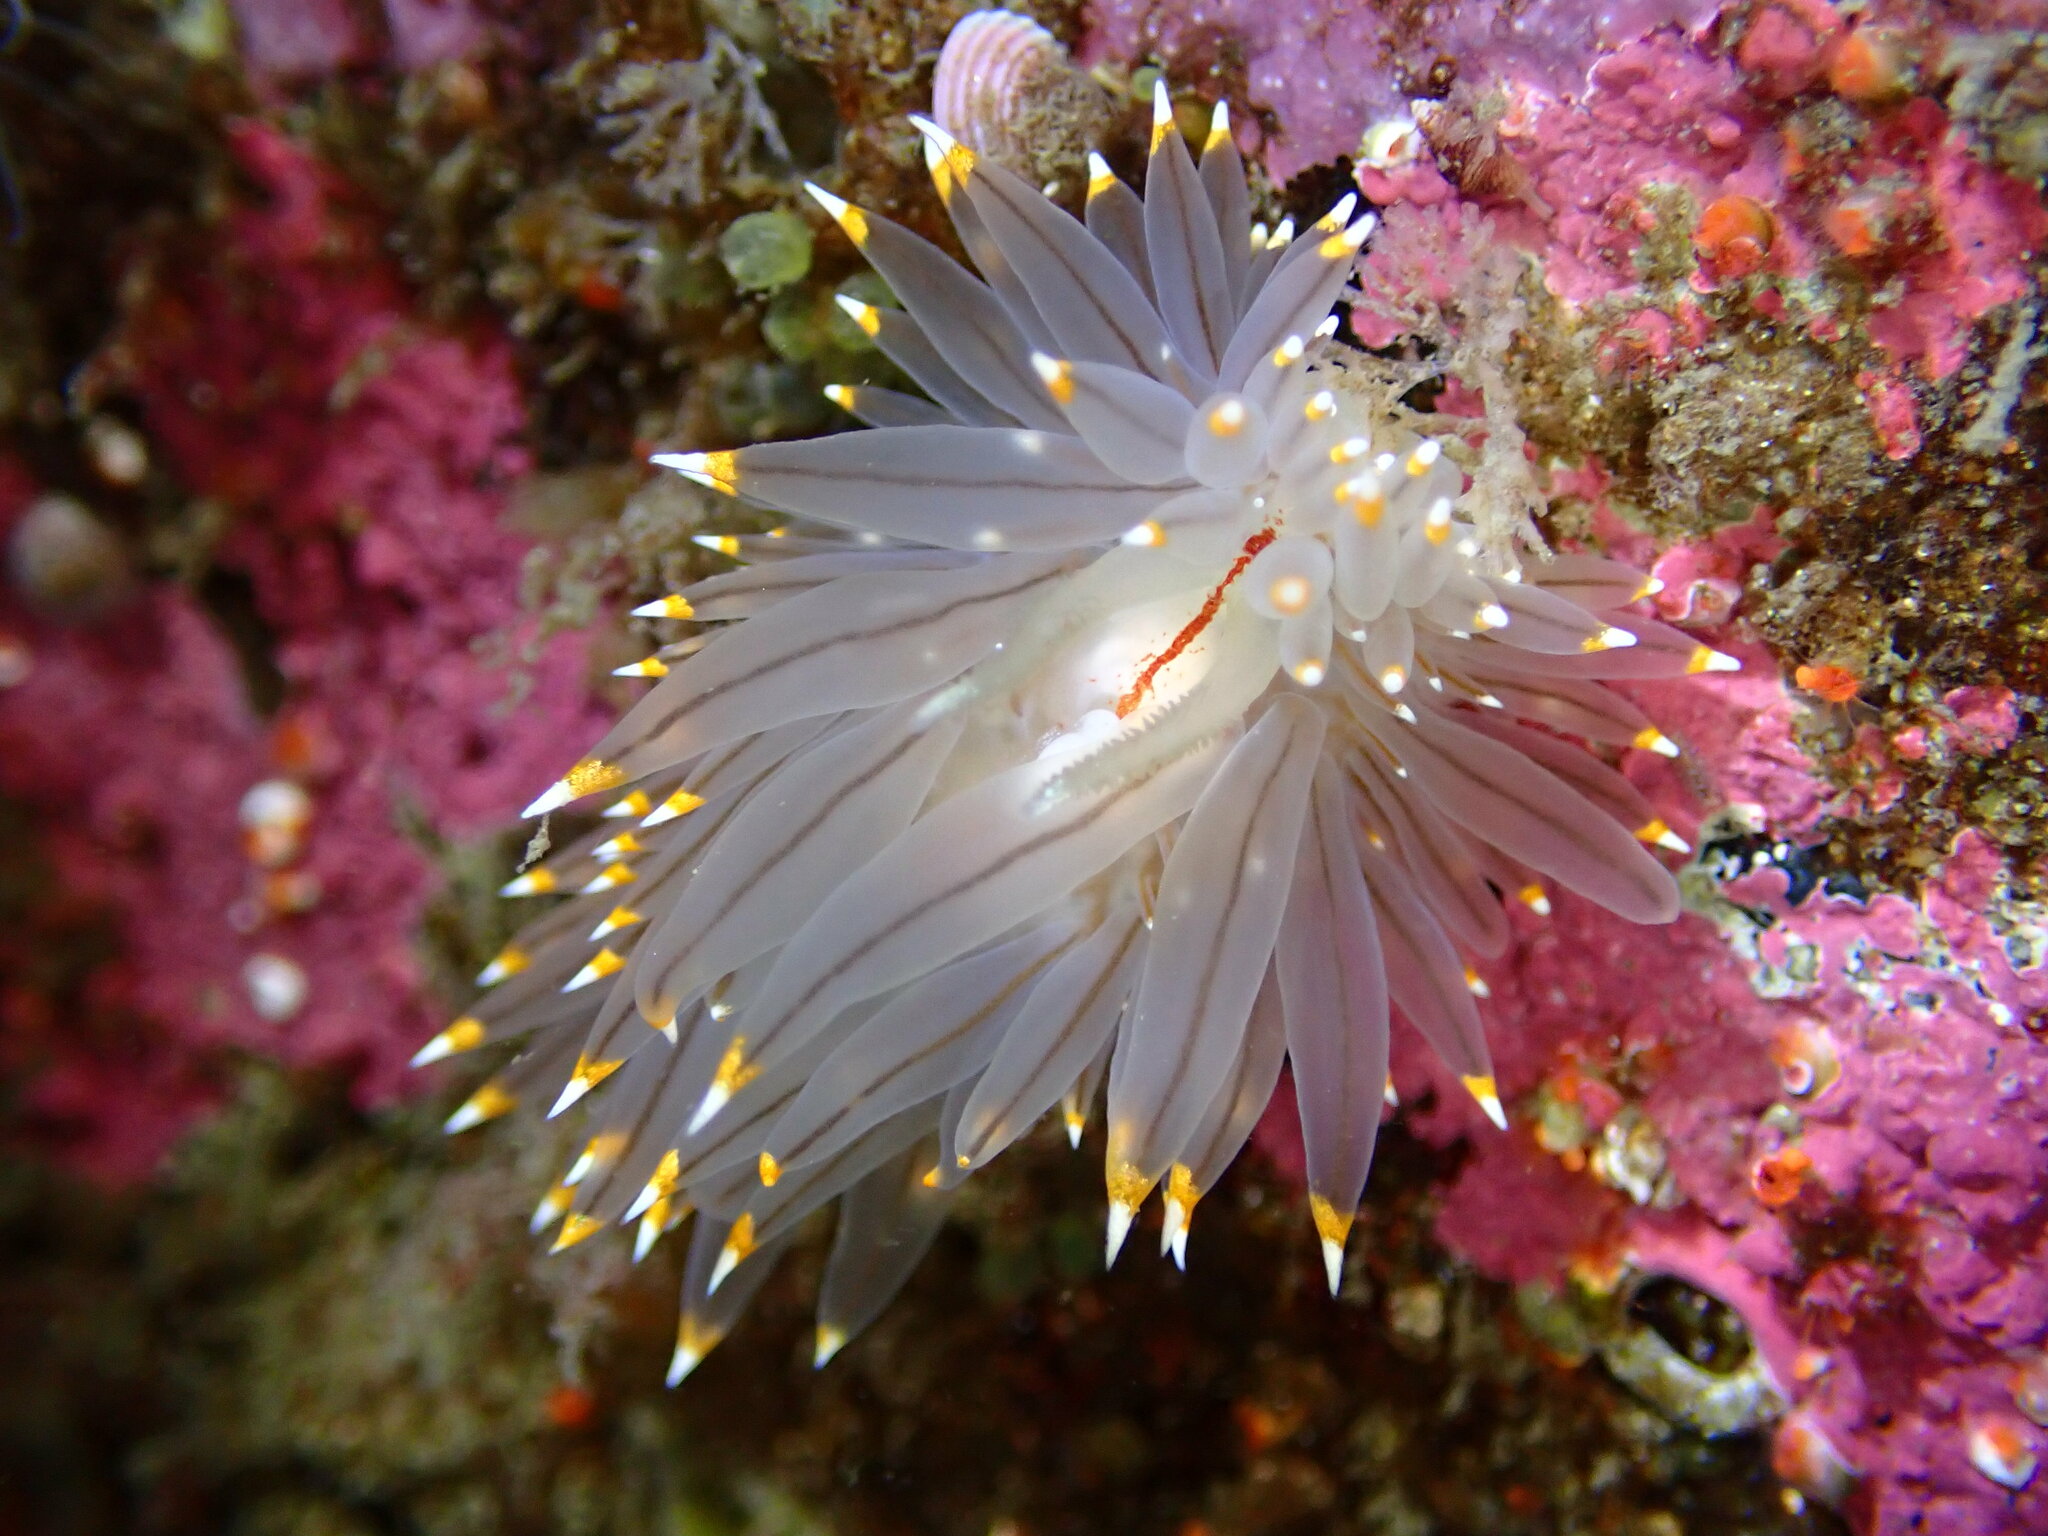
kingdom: Animalia
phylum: Mollusca
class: Gastropoda
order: Nudibranchia
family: Janolidae
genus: Antiopella
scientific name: Antiopella fusca
